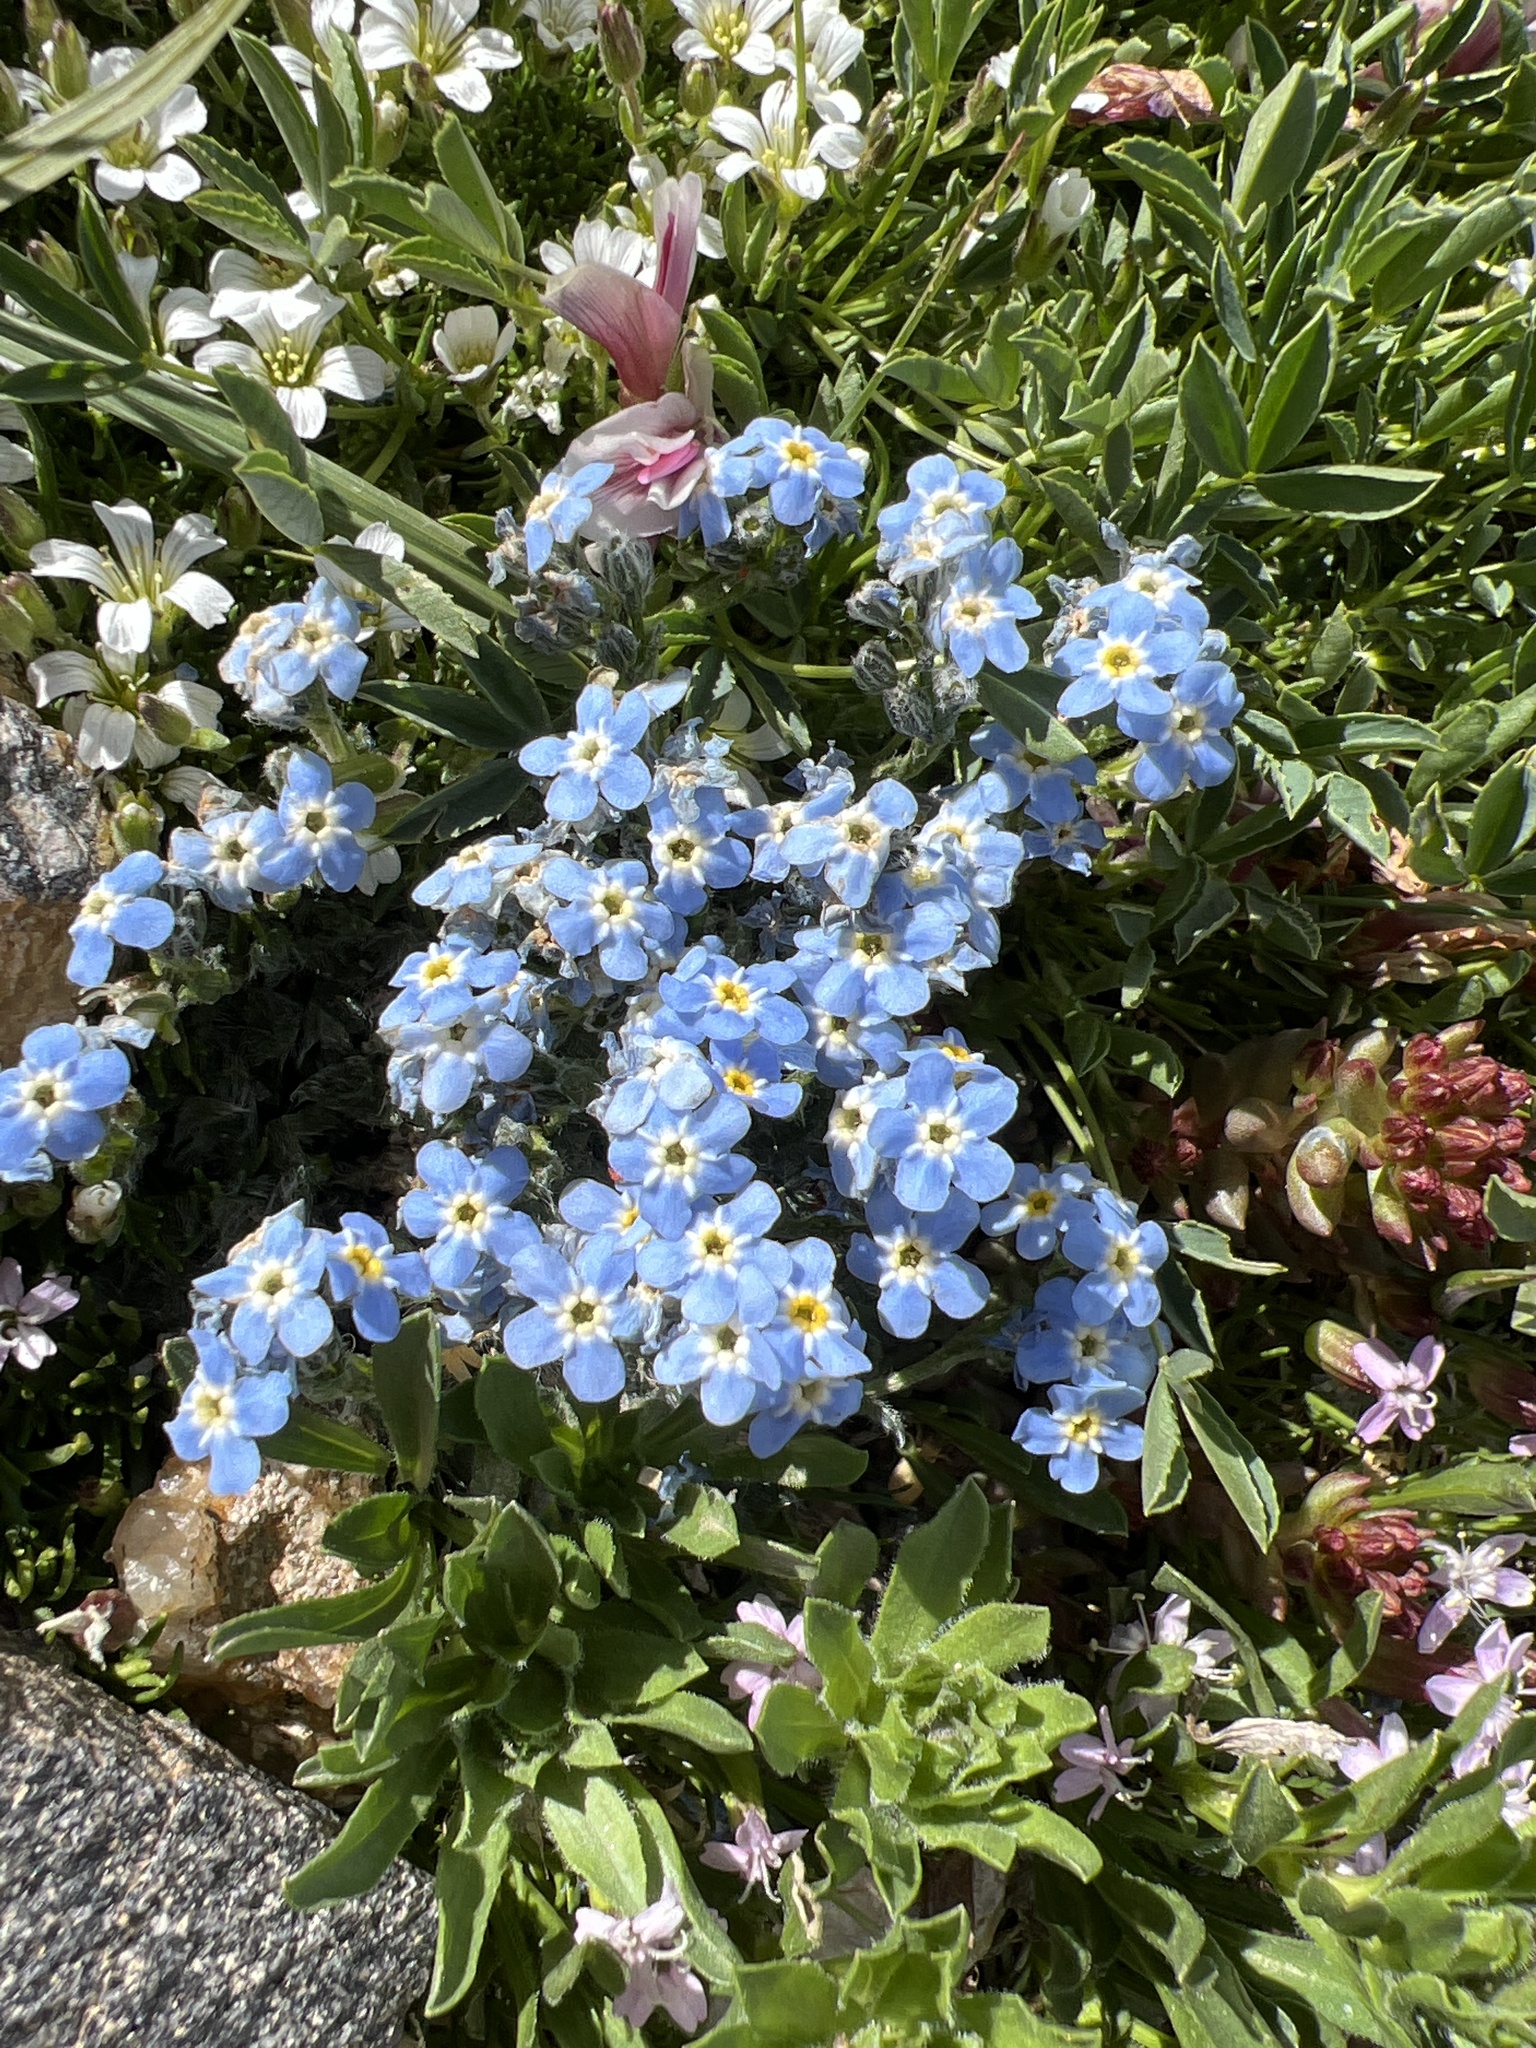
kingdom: Plantae
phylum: Tracheophyta
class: Magnoliopsida
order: Boraginales
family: Boraginaceae
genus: Eritrichium
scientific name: Eritrichium argenteum
